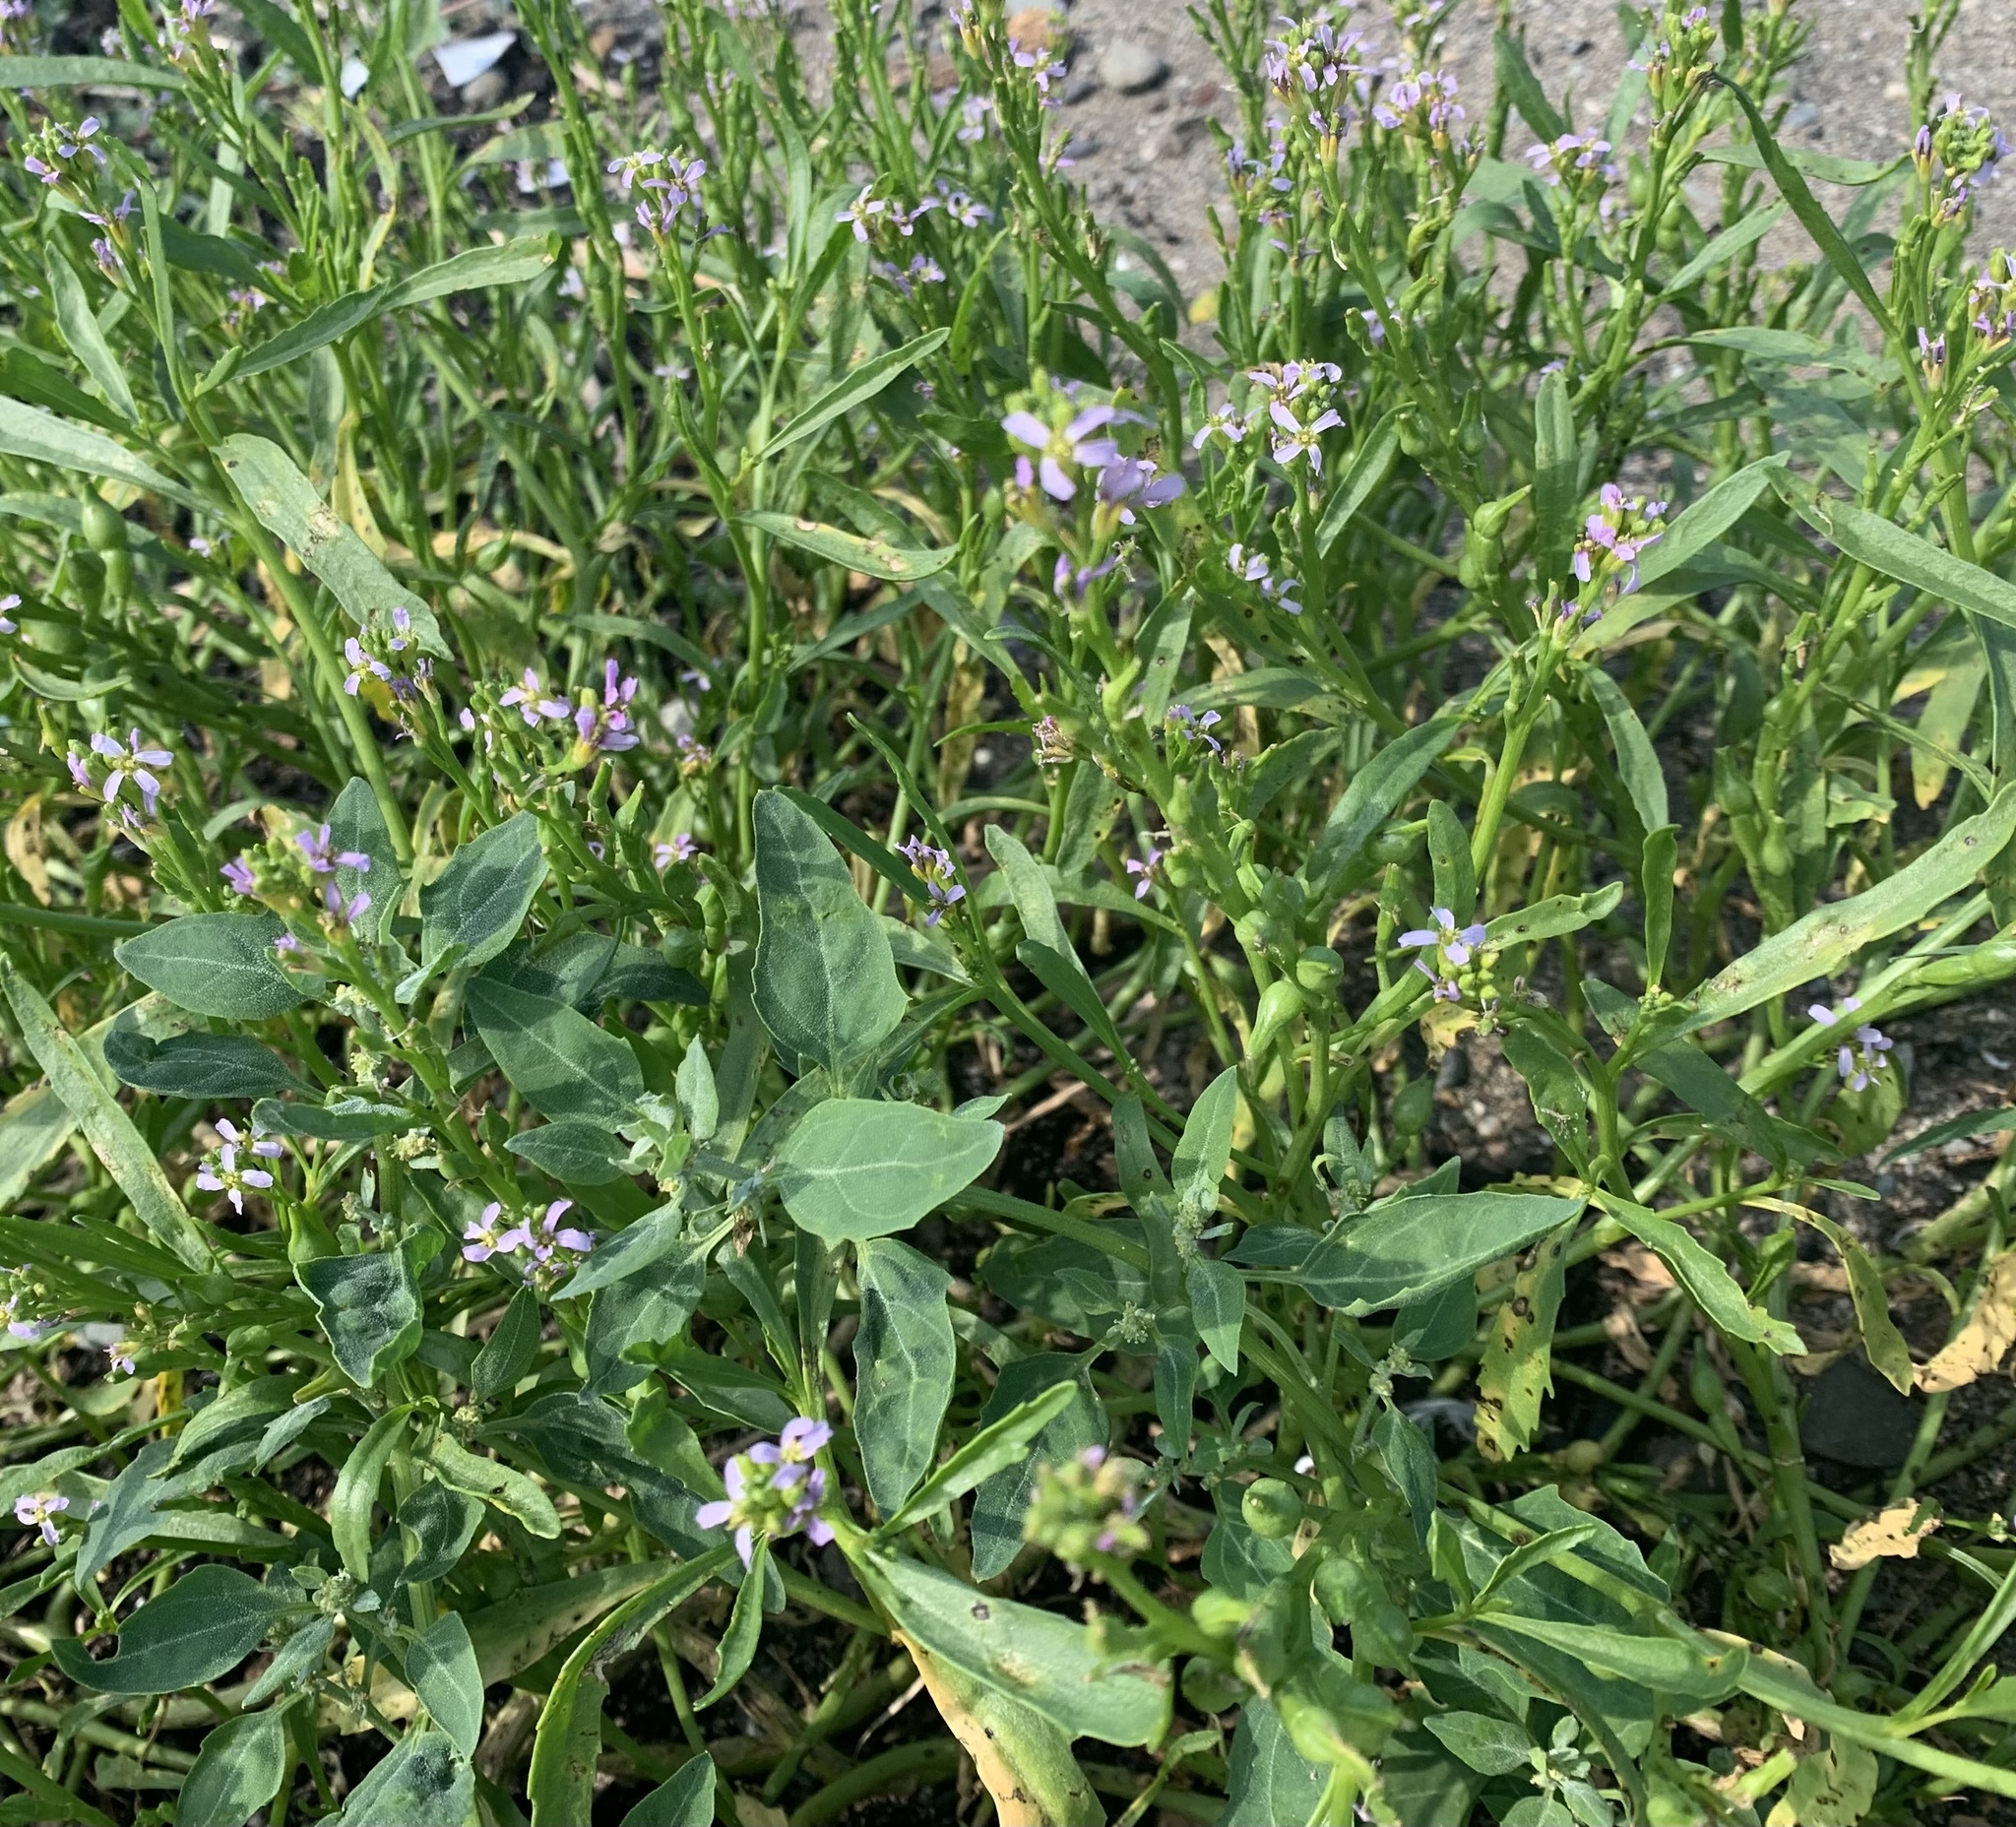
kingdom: Plantae
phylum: Tracheophyta
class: Magnoliopsida
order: Brassicales
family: Brassicaceae
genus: Cakile
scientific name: Cakile edentula
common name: American sea rocket
